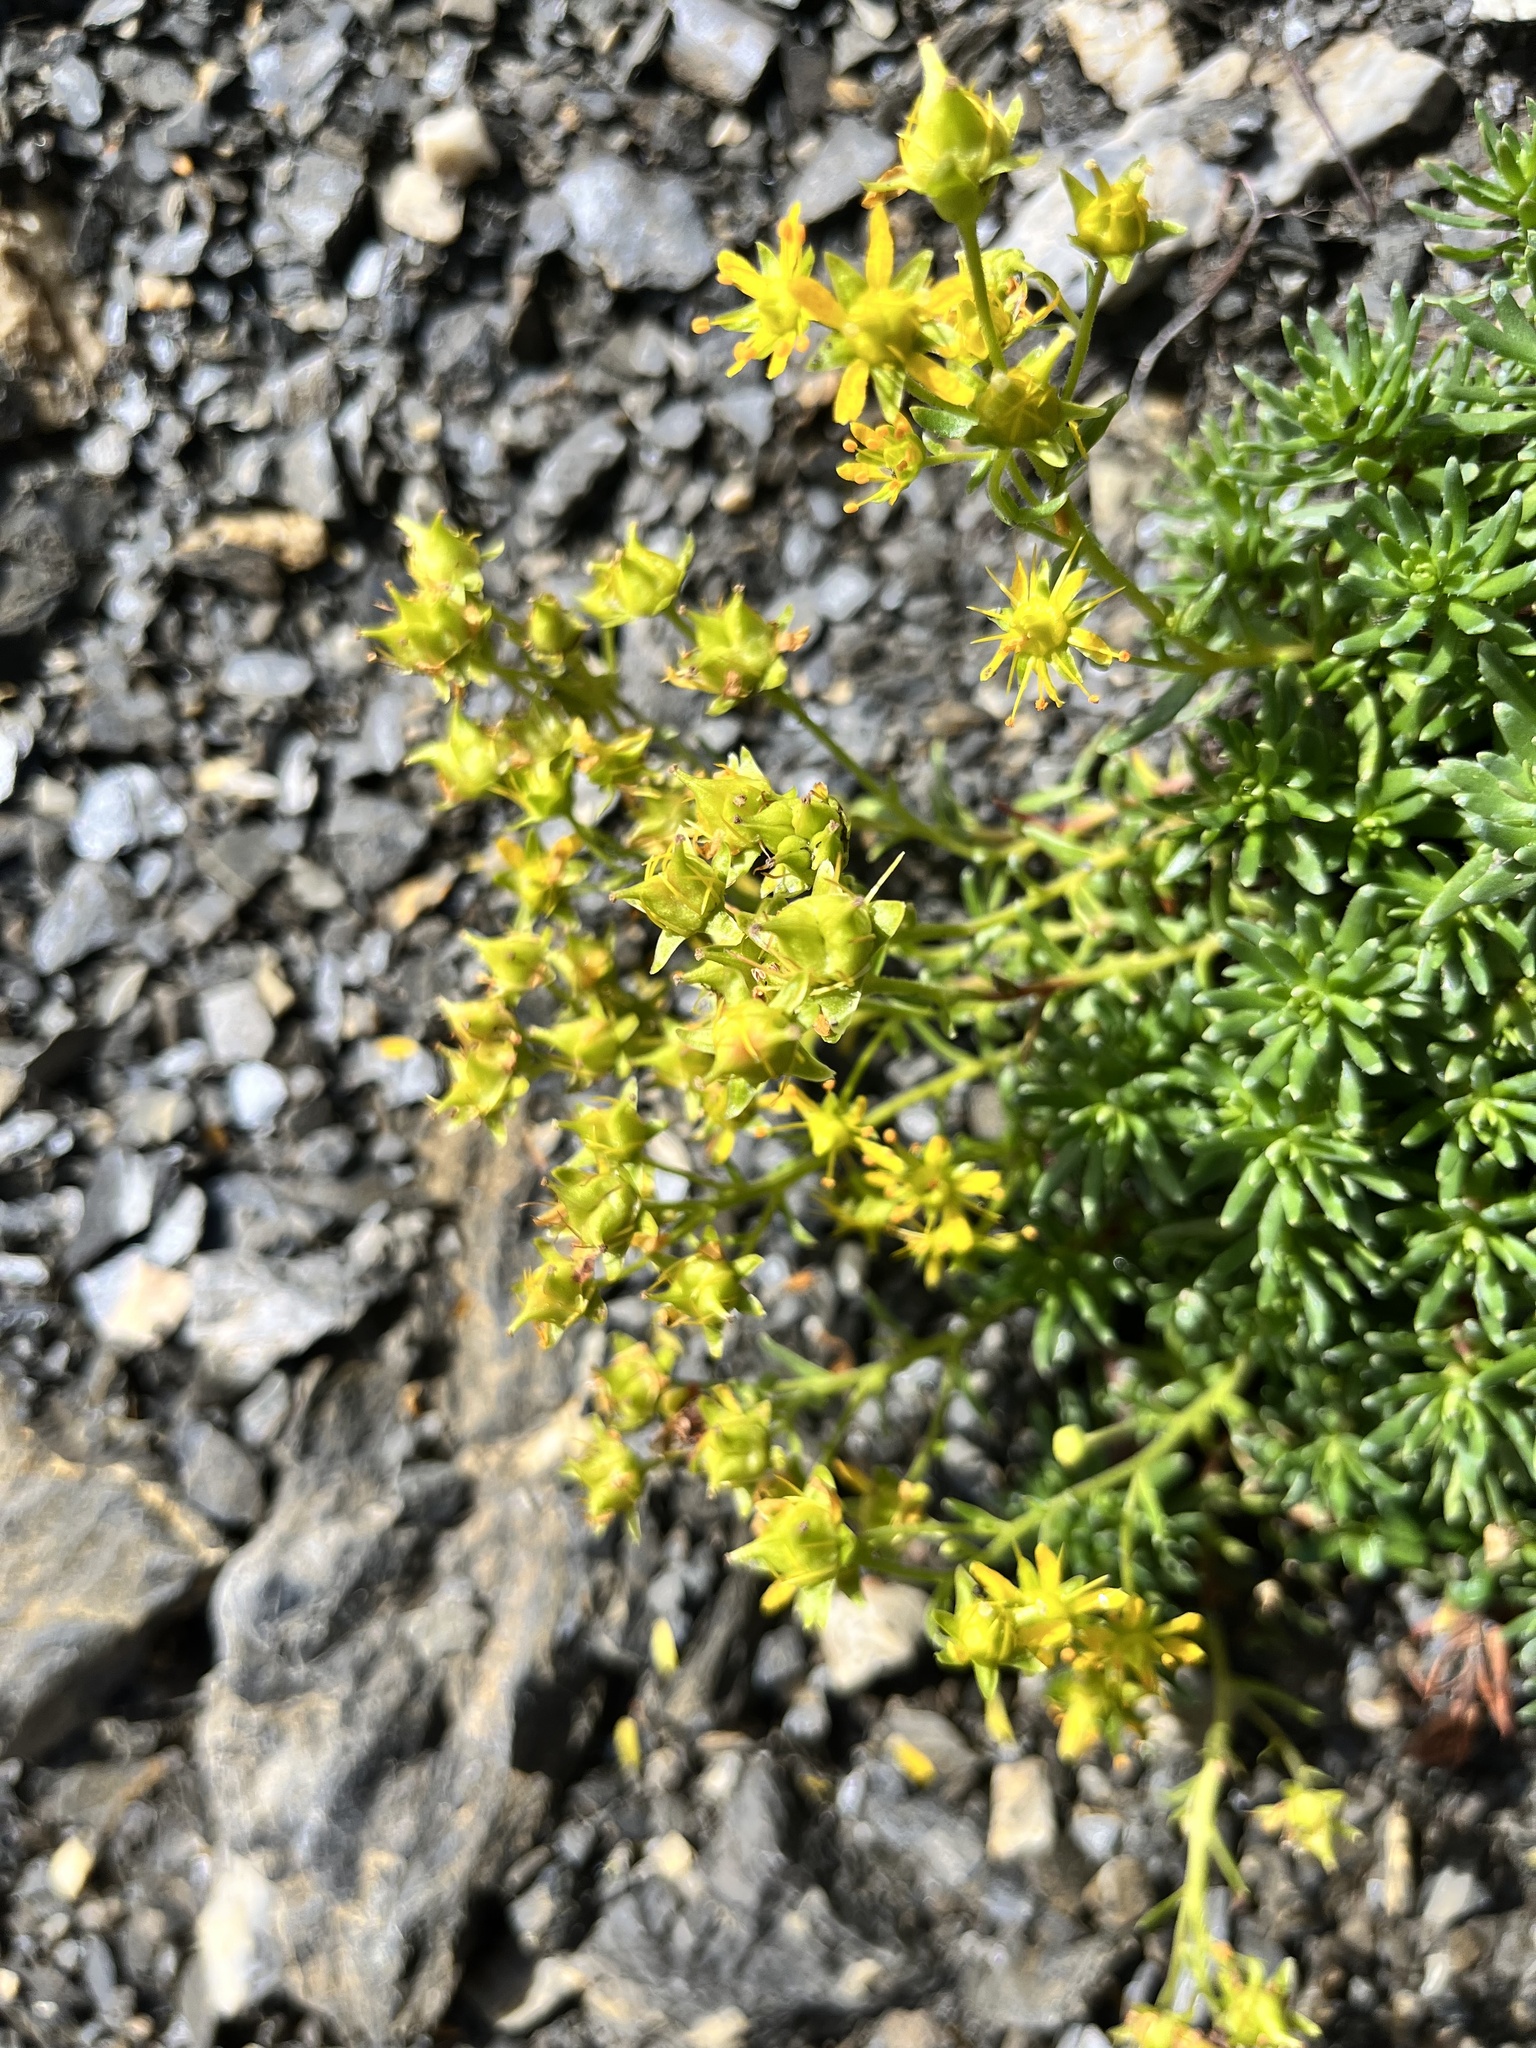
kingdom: Plantae
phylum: Tracheophyta
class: Magnoliopsida
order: Saxifragales
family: Saxifragaceae
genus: Saxifraga
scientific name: Saxifraga aizoides
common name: Yellow mountain saxifrage
